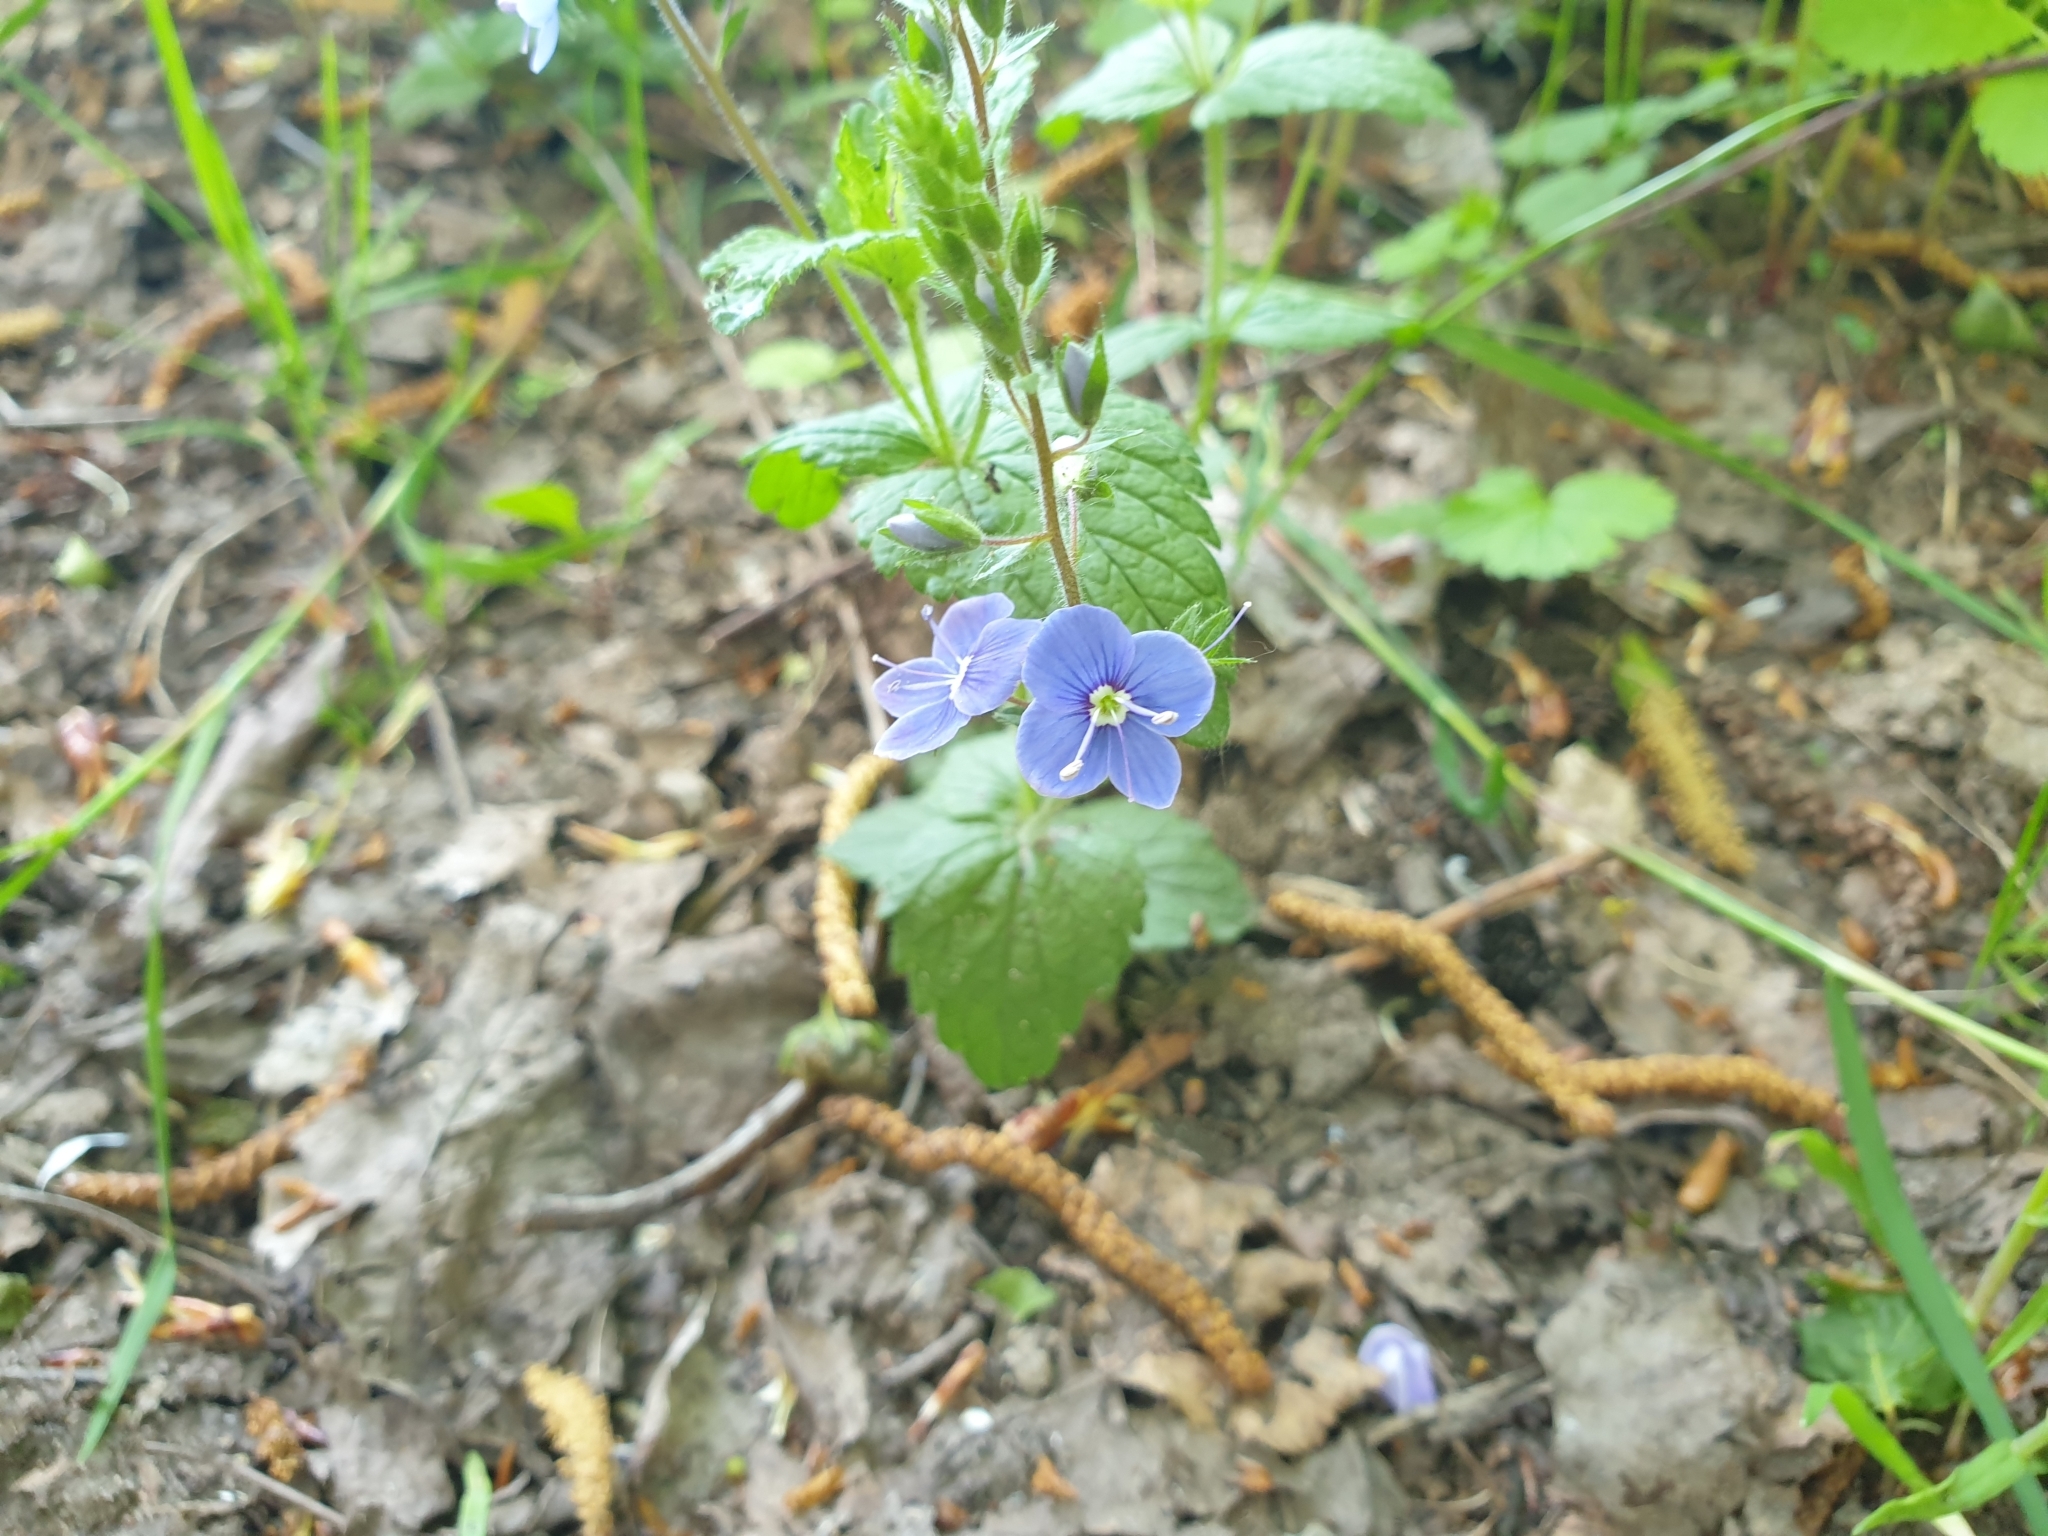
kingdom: Plantae
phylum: Tracheophyta
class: Magnoliopsida
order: Lamiales
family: Plantaginaceae
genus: Veronica
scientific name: Veronica chamaedrys
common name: Germander speedwell
